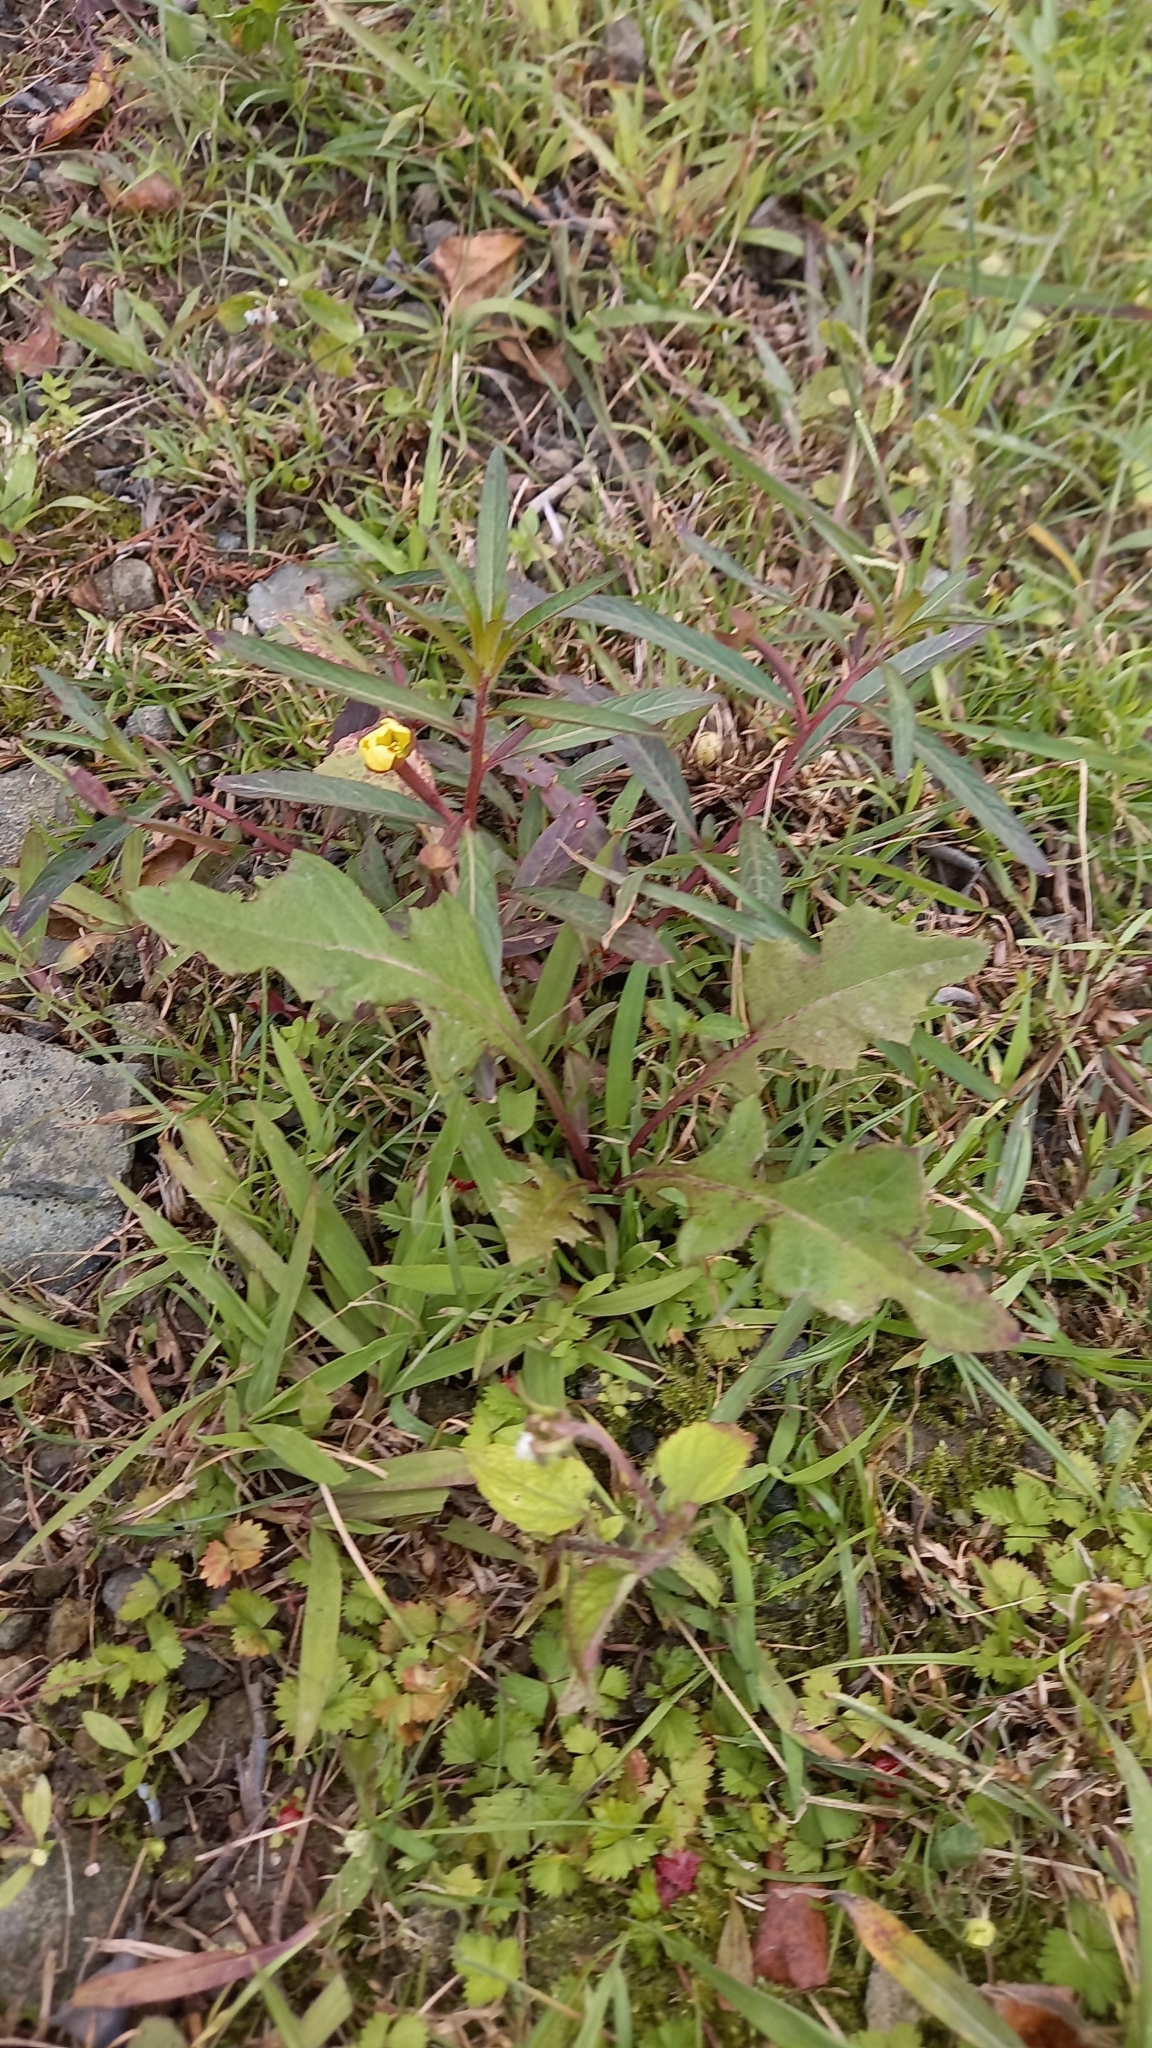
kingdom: Plantae
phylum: Tracheophyta
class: Magnoliopsida
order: Myrtales
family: Onagraceae
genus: Ludwigia
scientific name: Ludwigia octovalvis
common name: Water-primrose
